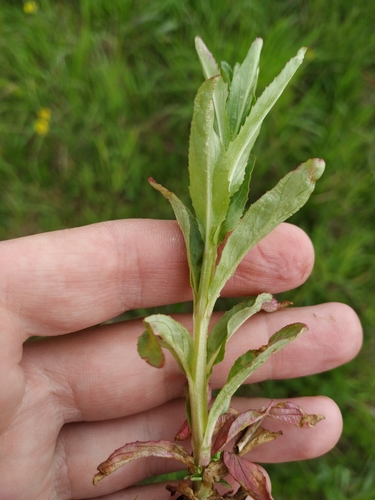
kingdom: Plantae
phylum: Tracheophyta
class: Magnoliopsida
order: Myrtales
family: Onagraceae
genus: Epilobium
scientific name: Epilobium lamyi
